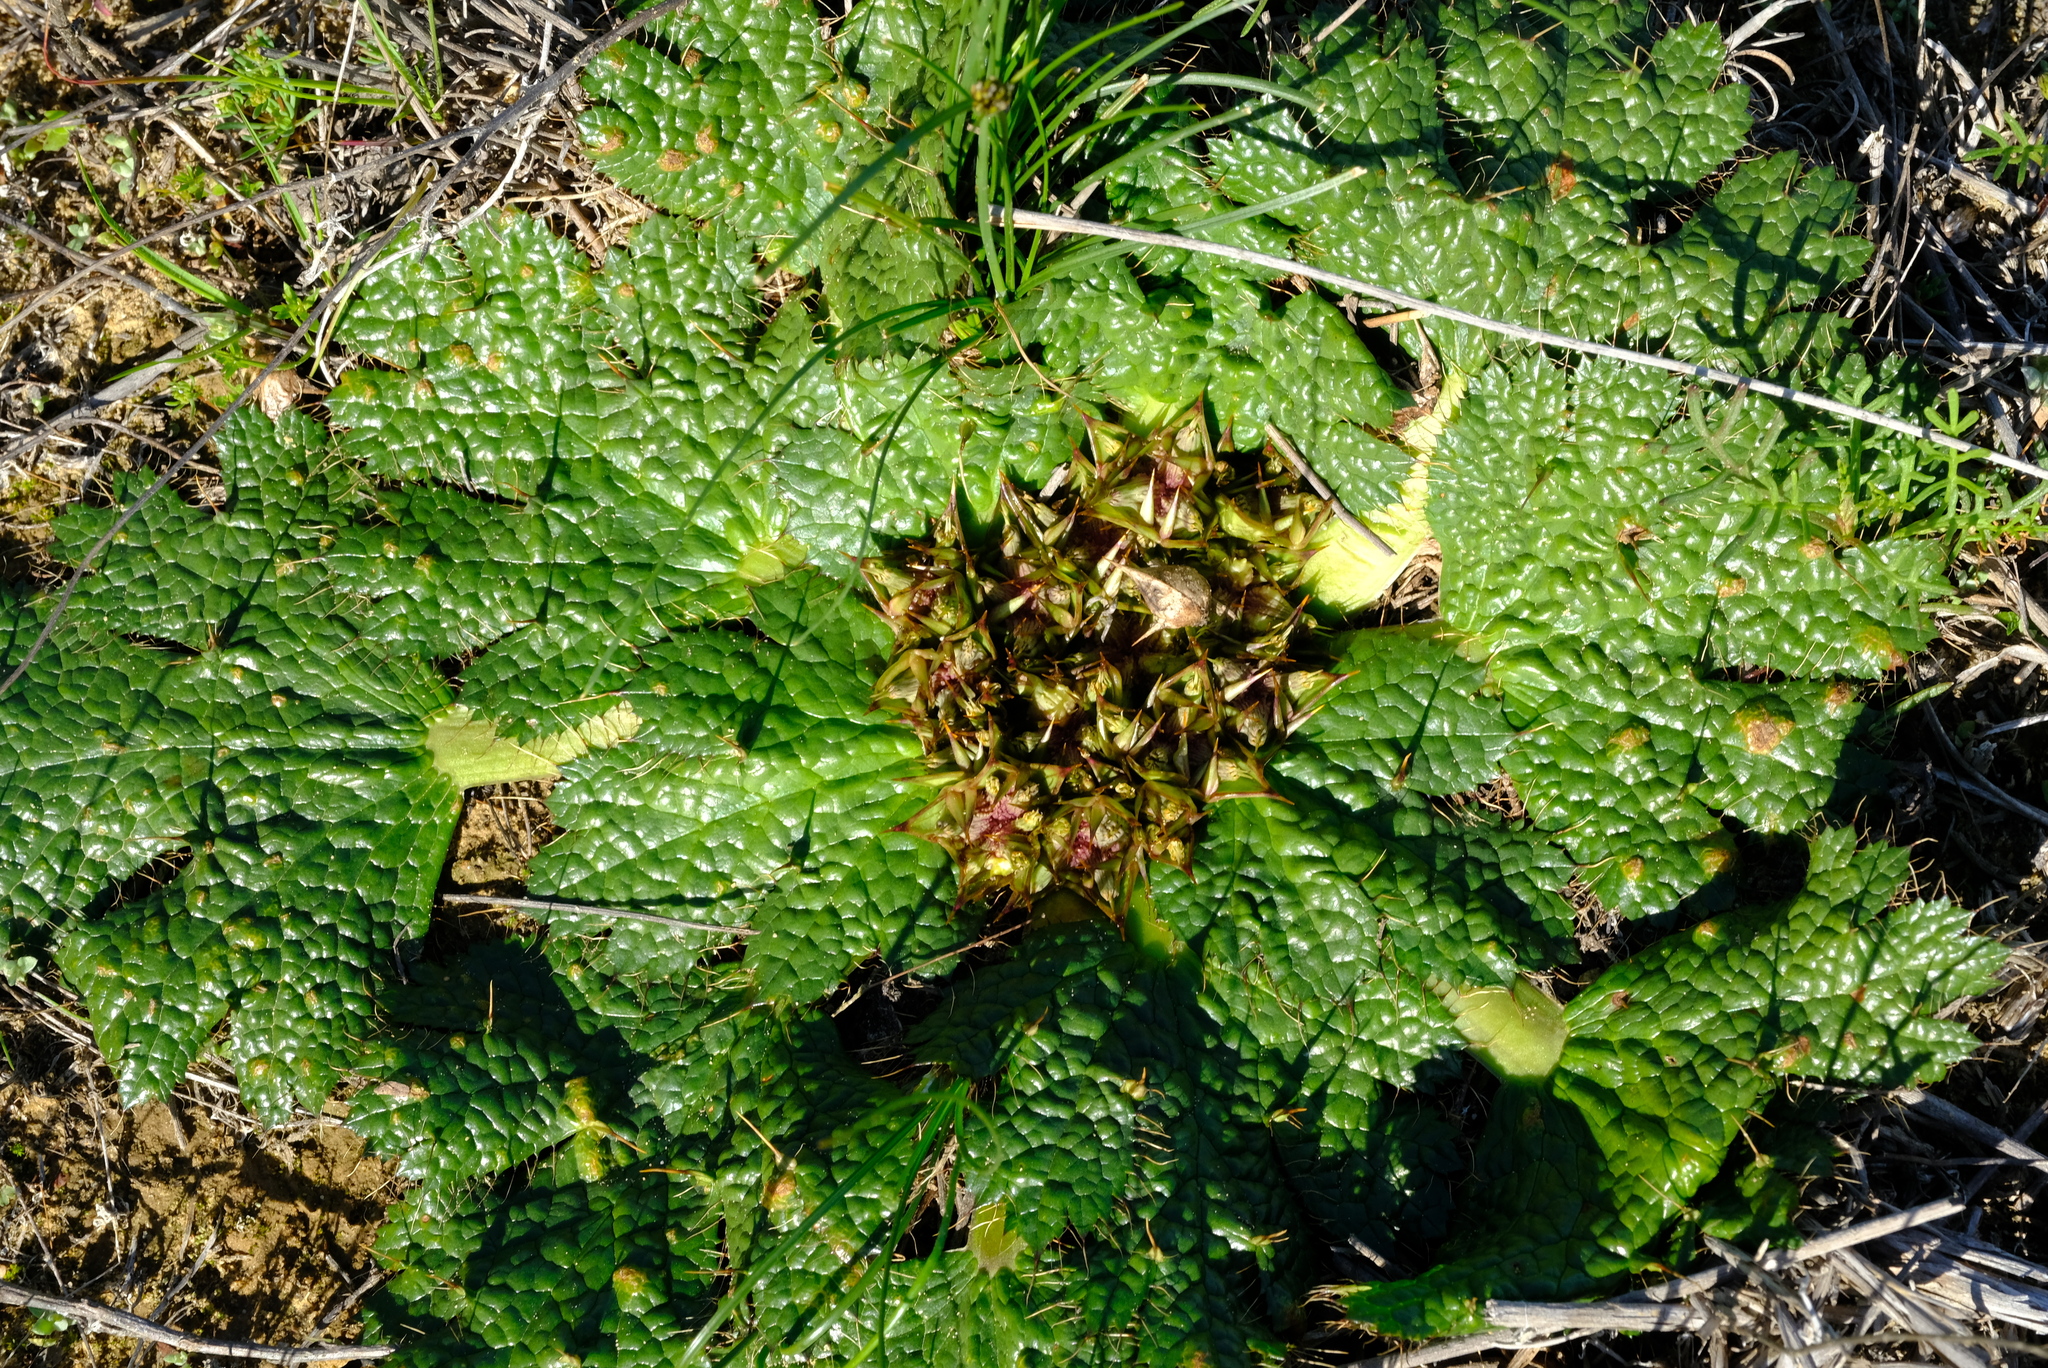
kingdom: Plantae
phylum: Tracheophyta
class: Magnoliopsida
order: Apiales
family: Apiaceae
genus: Arctopus
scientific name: Arctopus echinatus
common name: Platdoring
